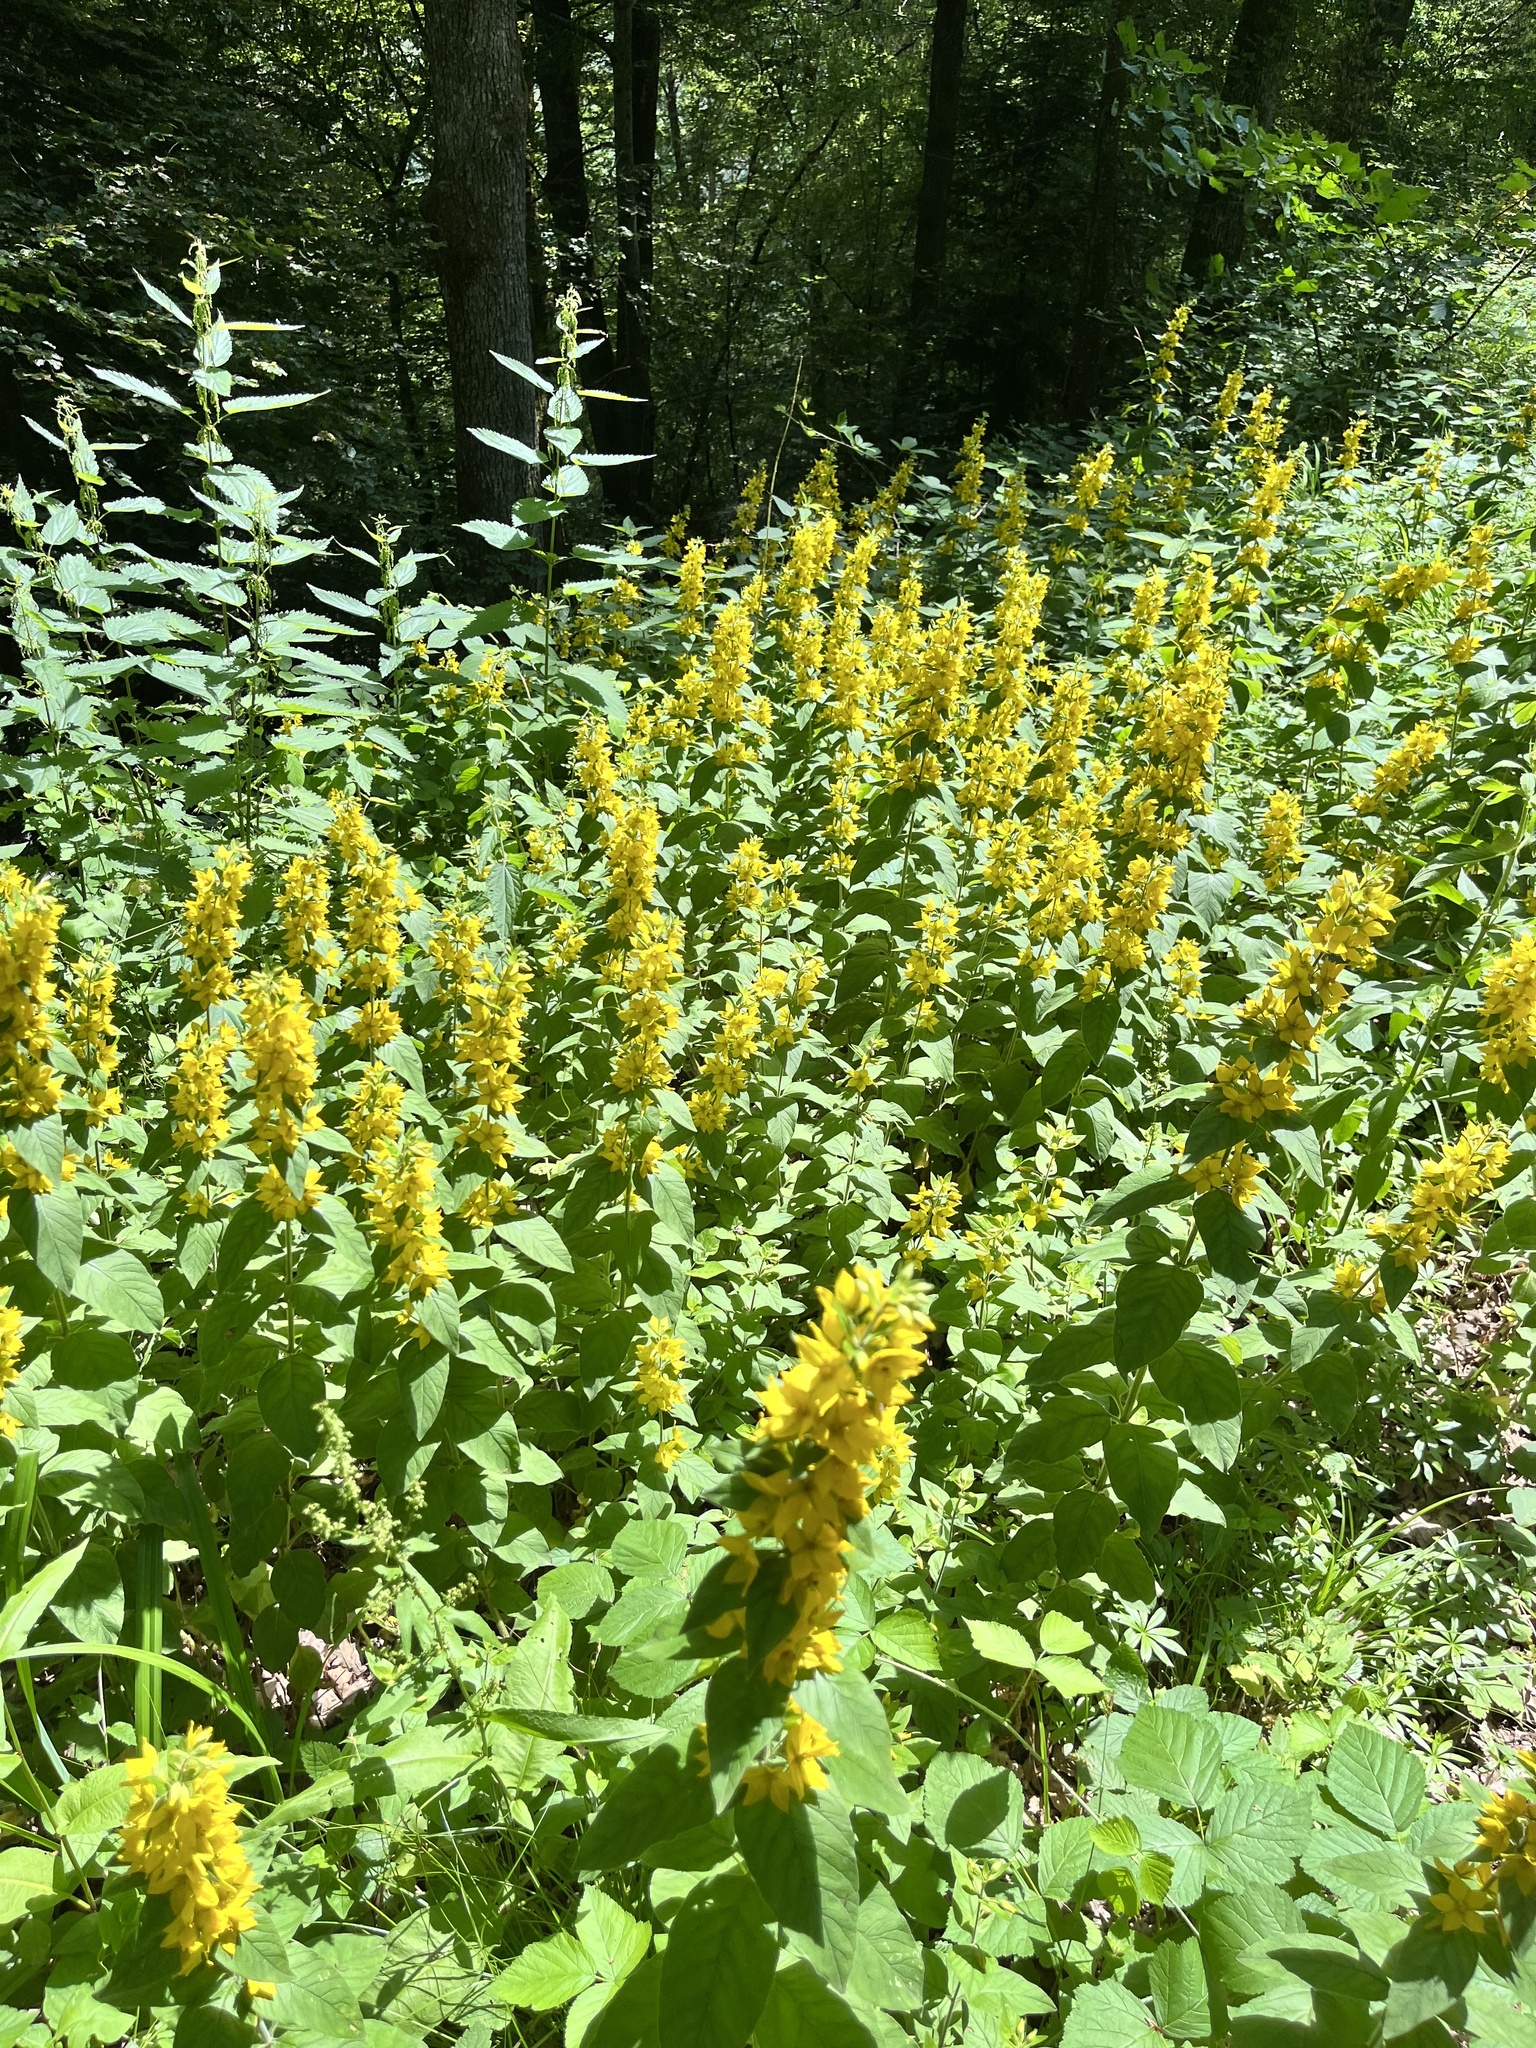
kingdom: Plantae
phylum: Tracheophyta
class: Magnoliopsida
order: Ericales
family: Primulaceae
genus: Lysimachia
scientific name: Lysimachia punctata
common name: Dotted loosestrife
